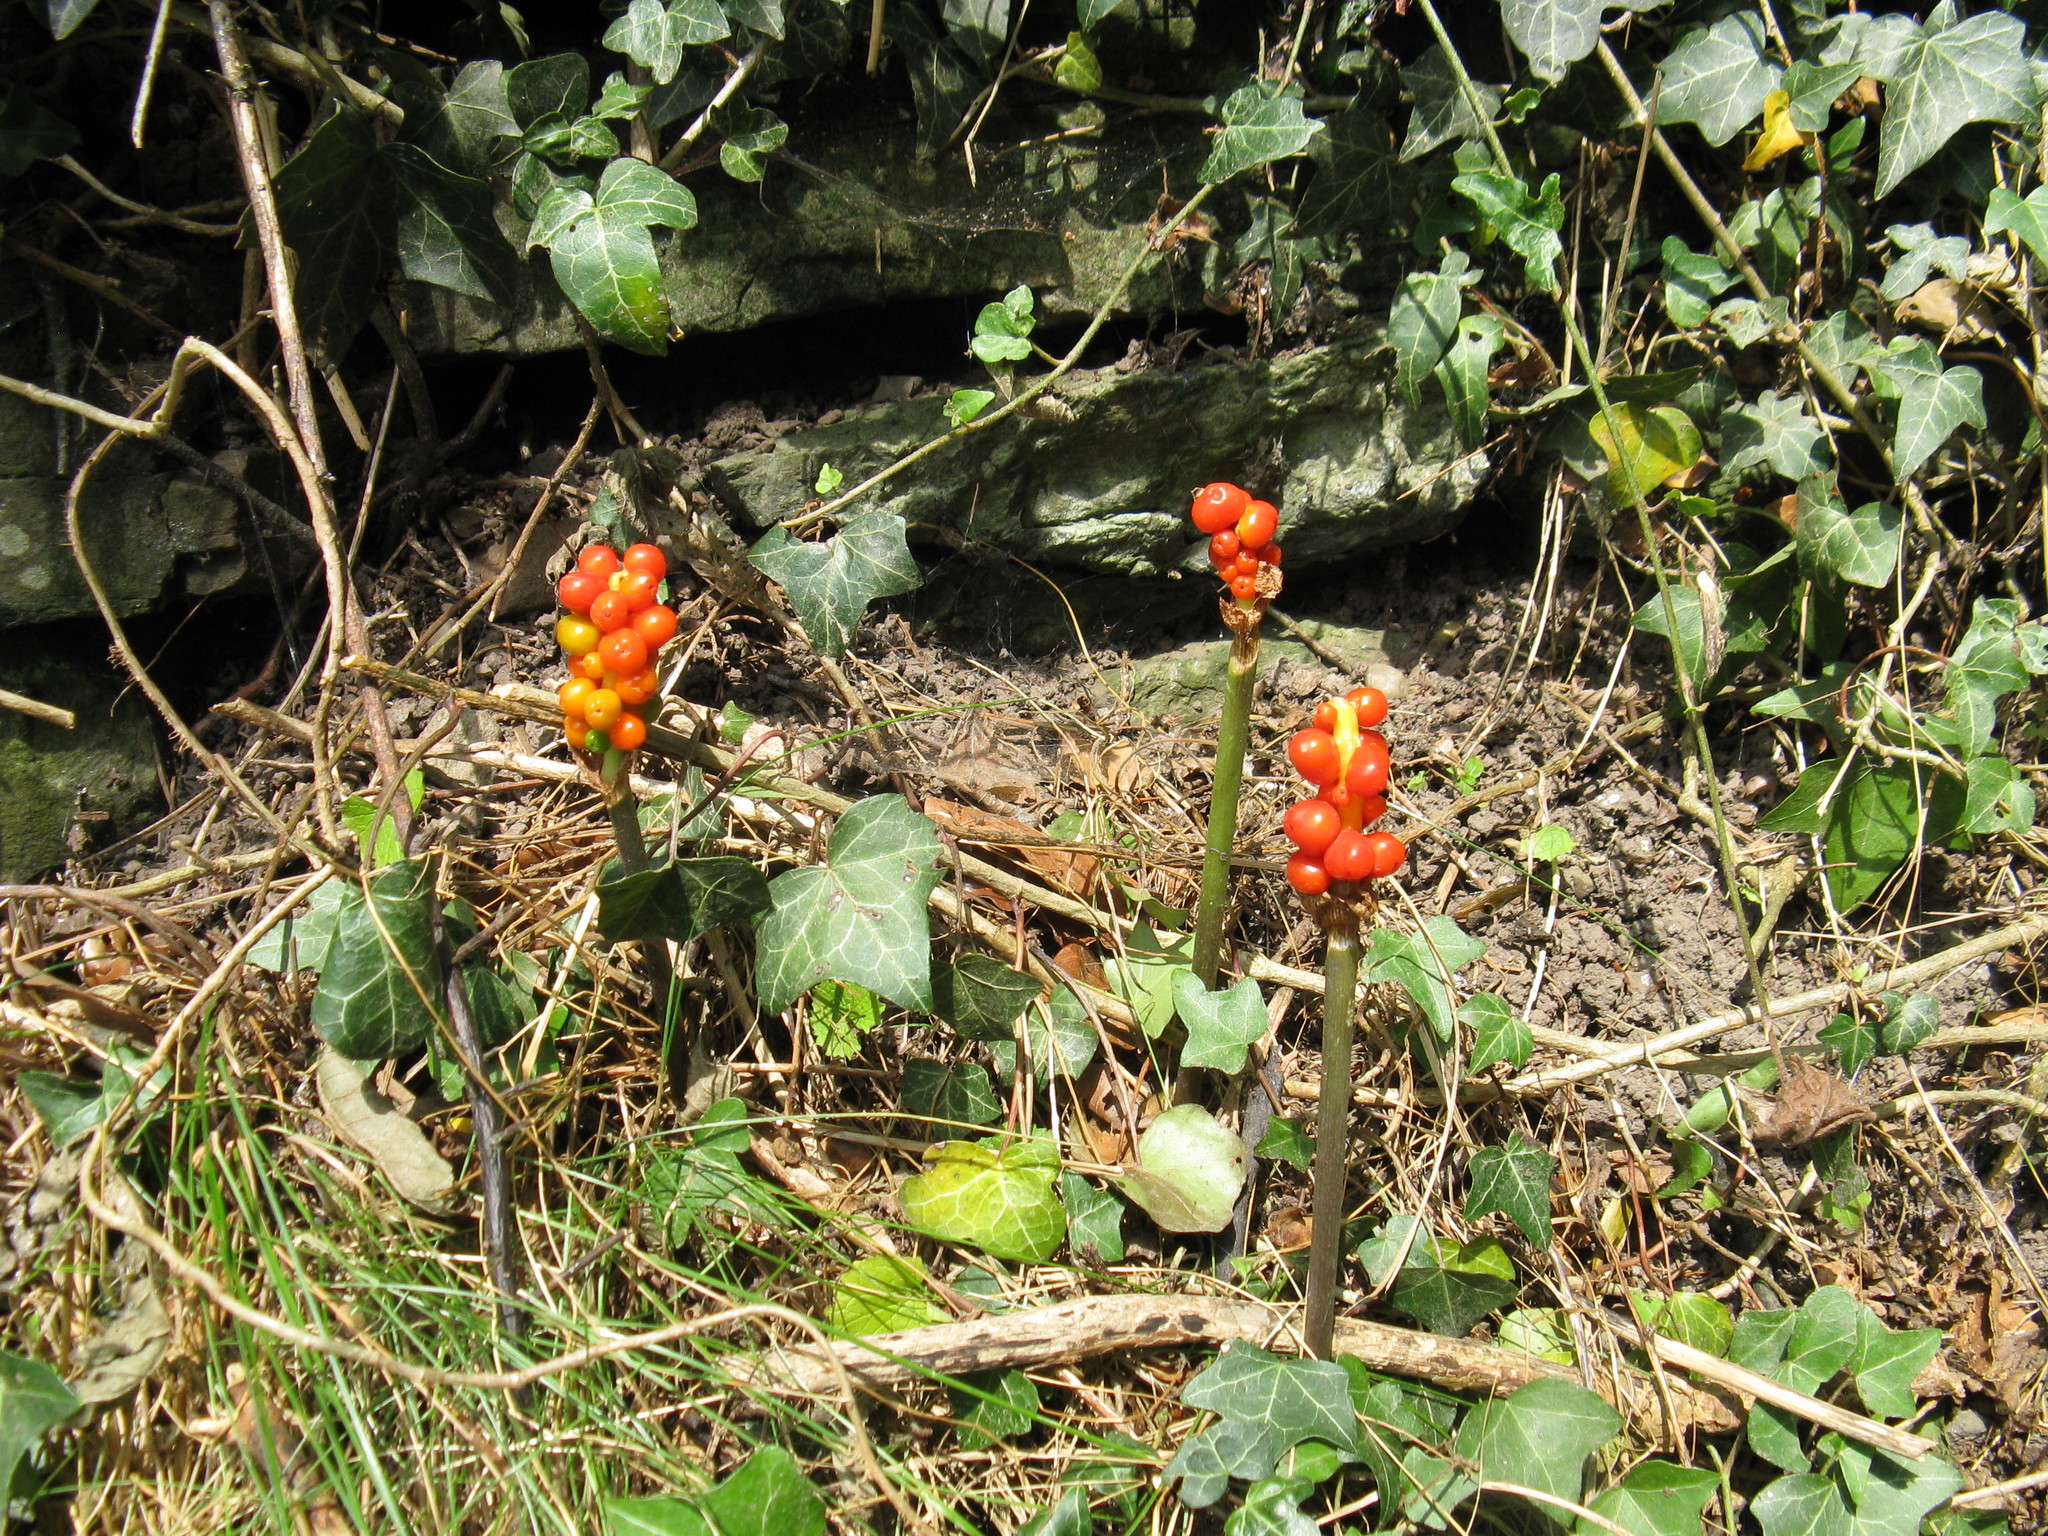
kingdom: Plantae
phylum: Tracheophyta
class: Liliopsida
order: Alismatales
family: Araceae
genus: Arum
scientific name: Arum maculatum
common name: Lords-and-ladies
